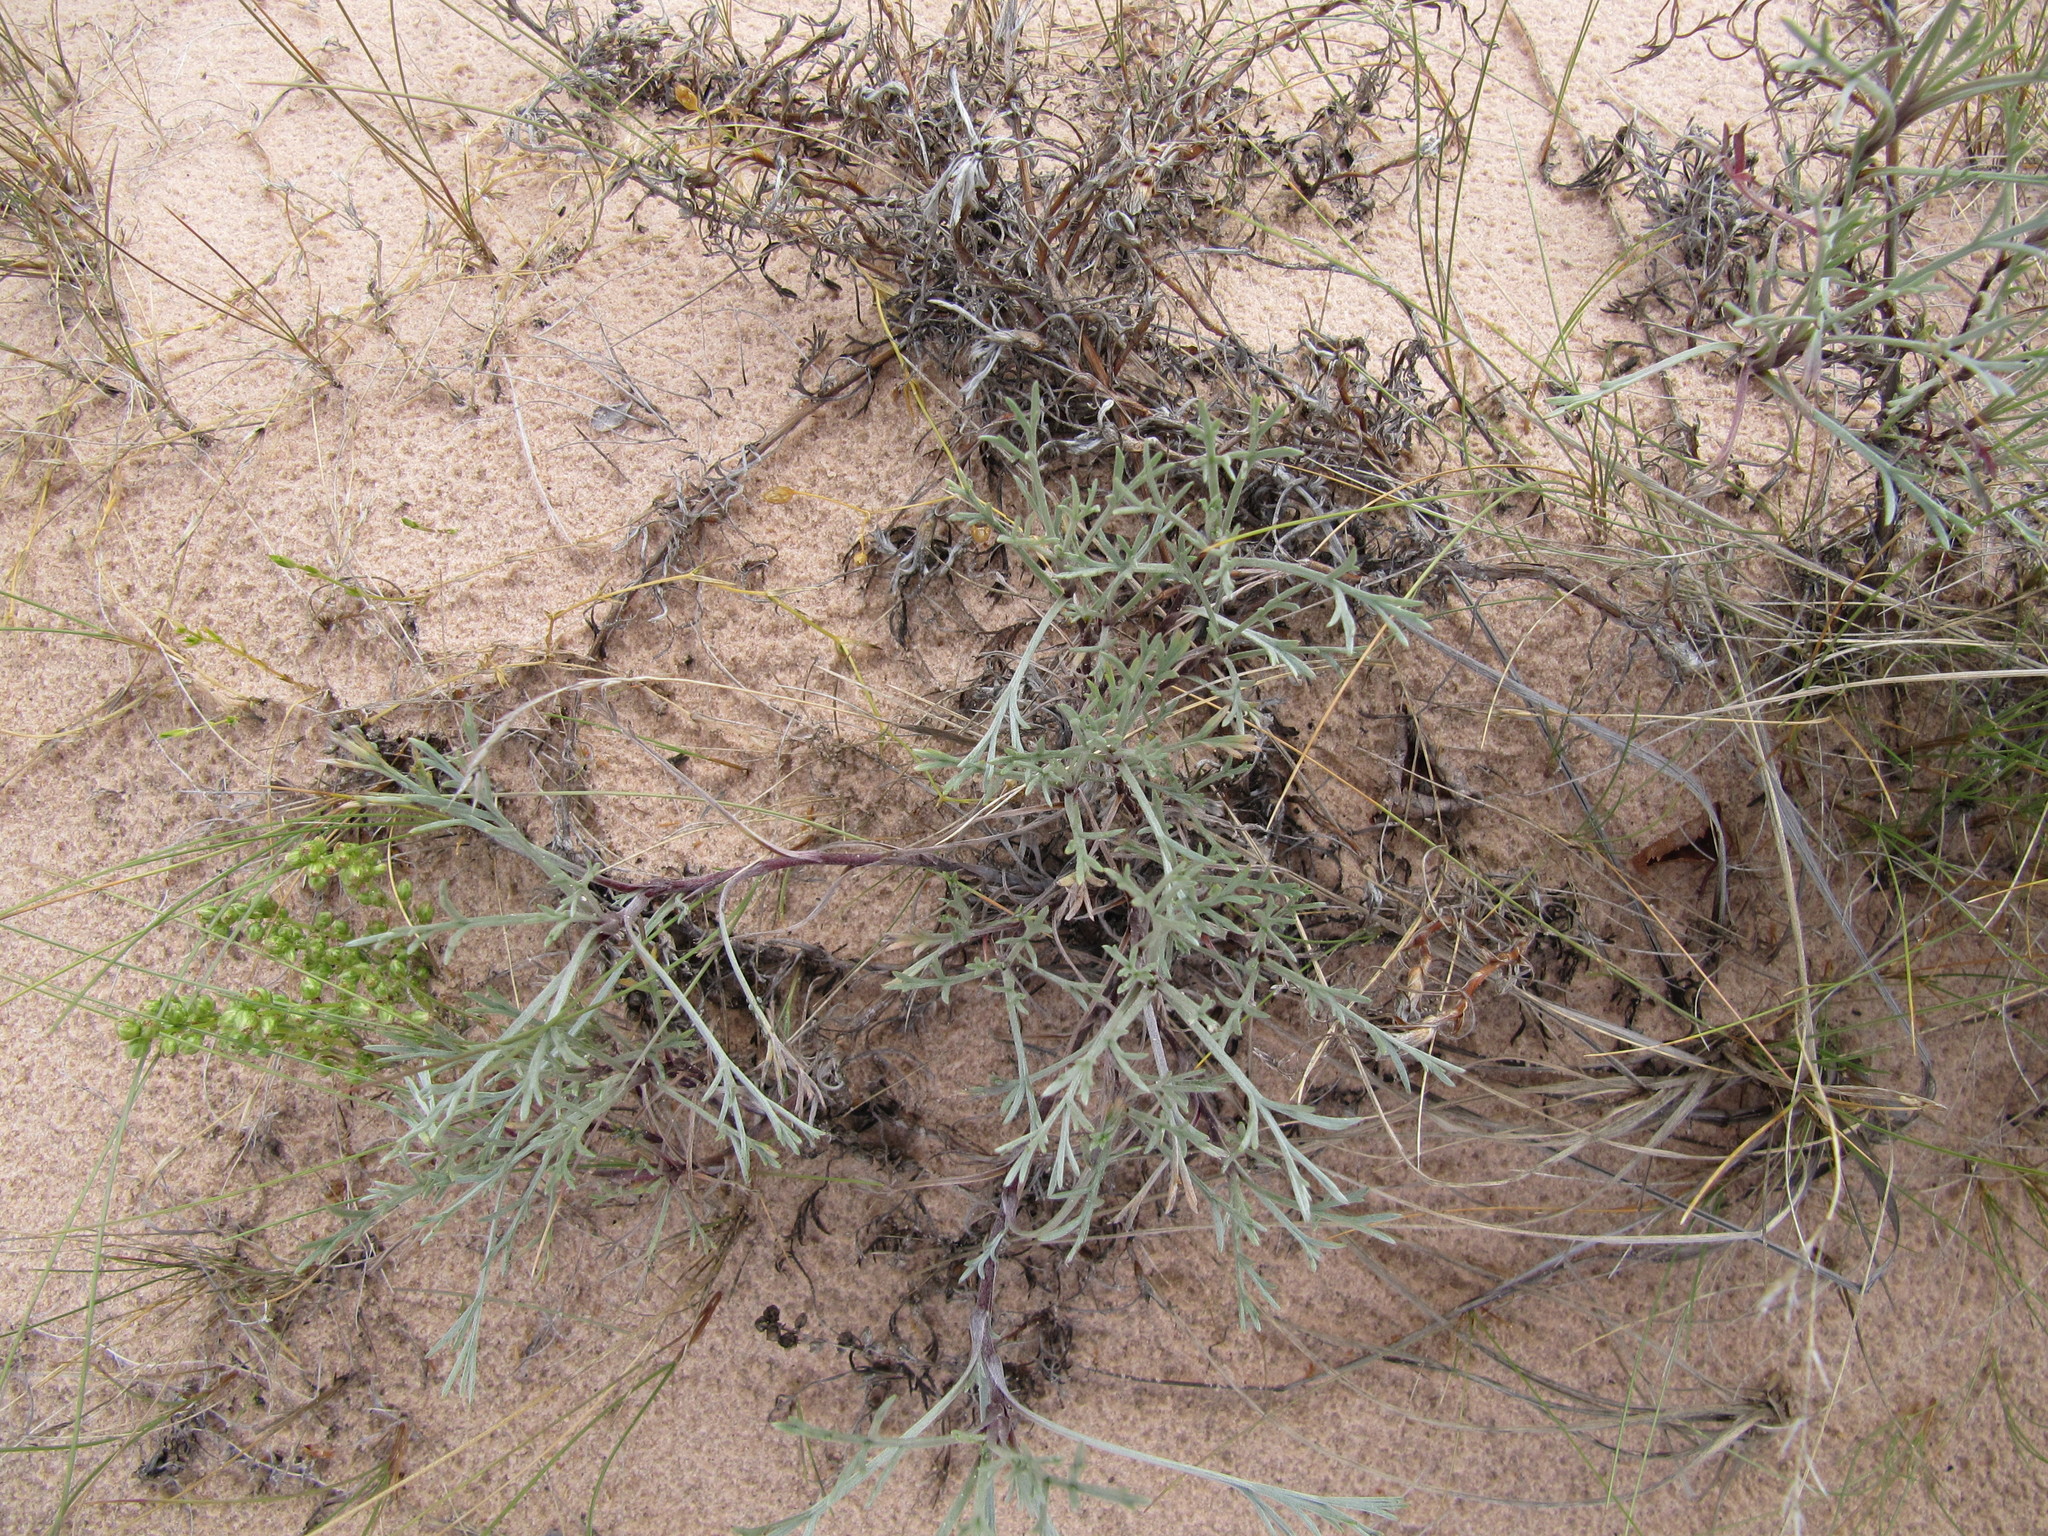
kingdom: Plantae
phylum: Tracheophyta
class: Magnoliopsida
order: Asterales
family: Asteraceae
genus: Artemisia
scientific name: Artemisia campestris
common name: Field wormwood
